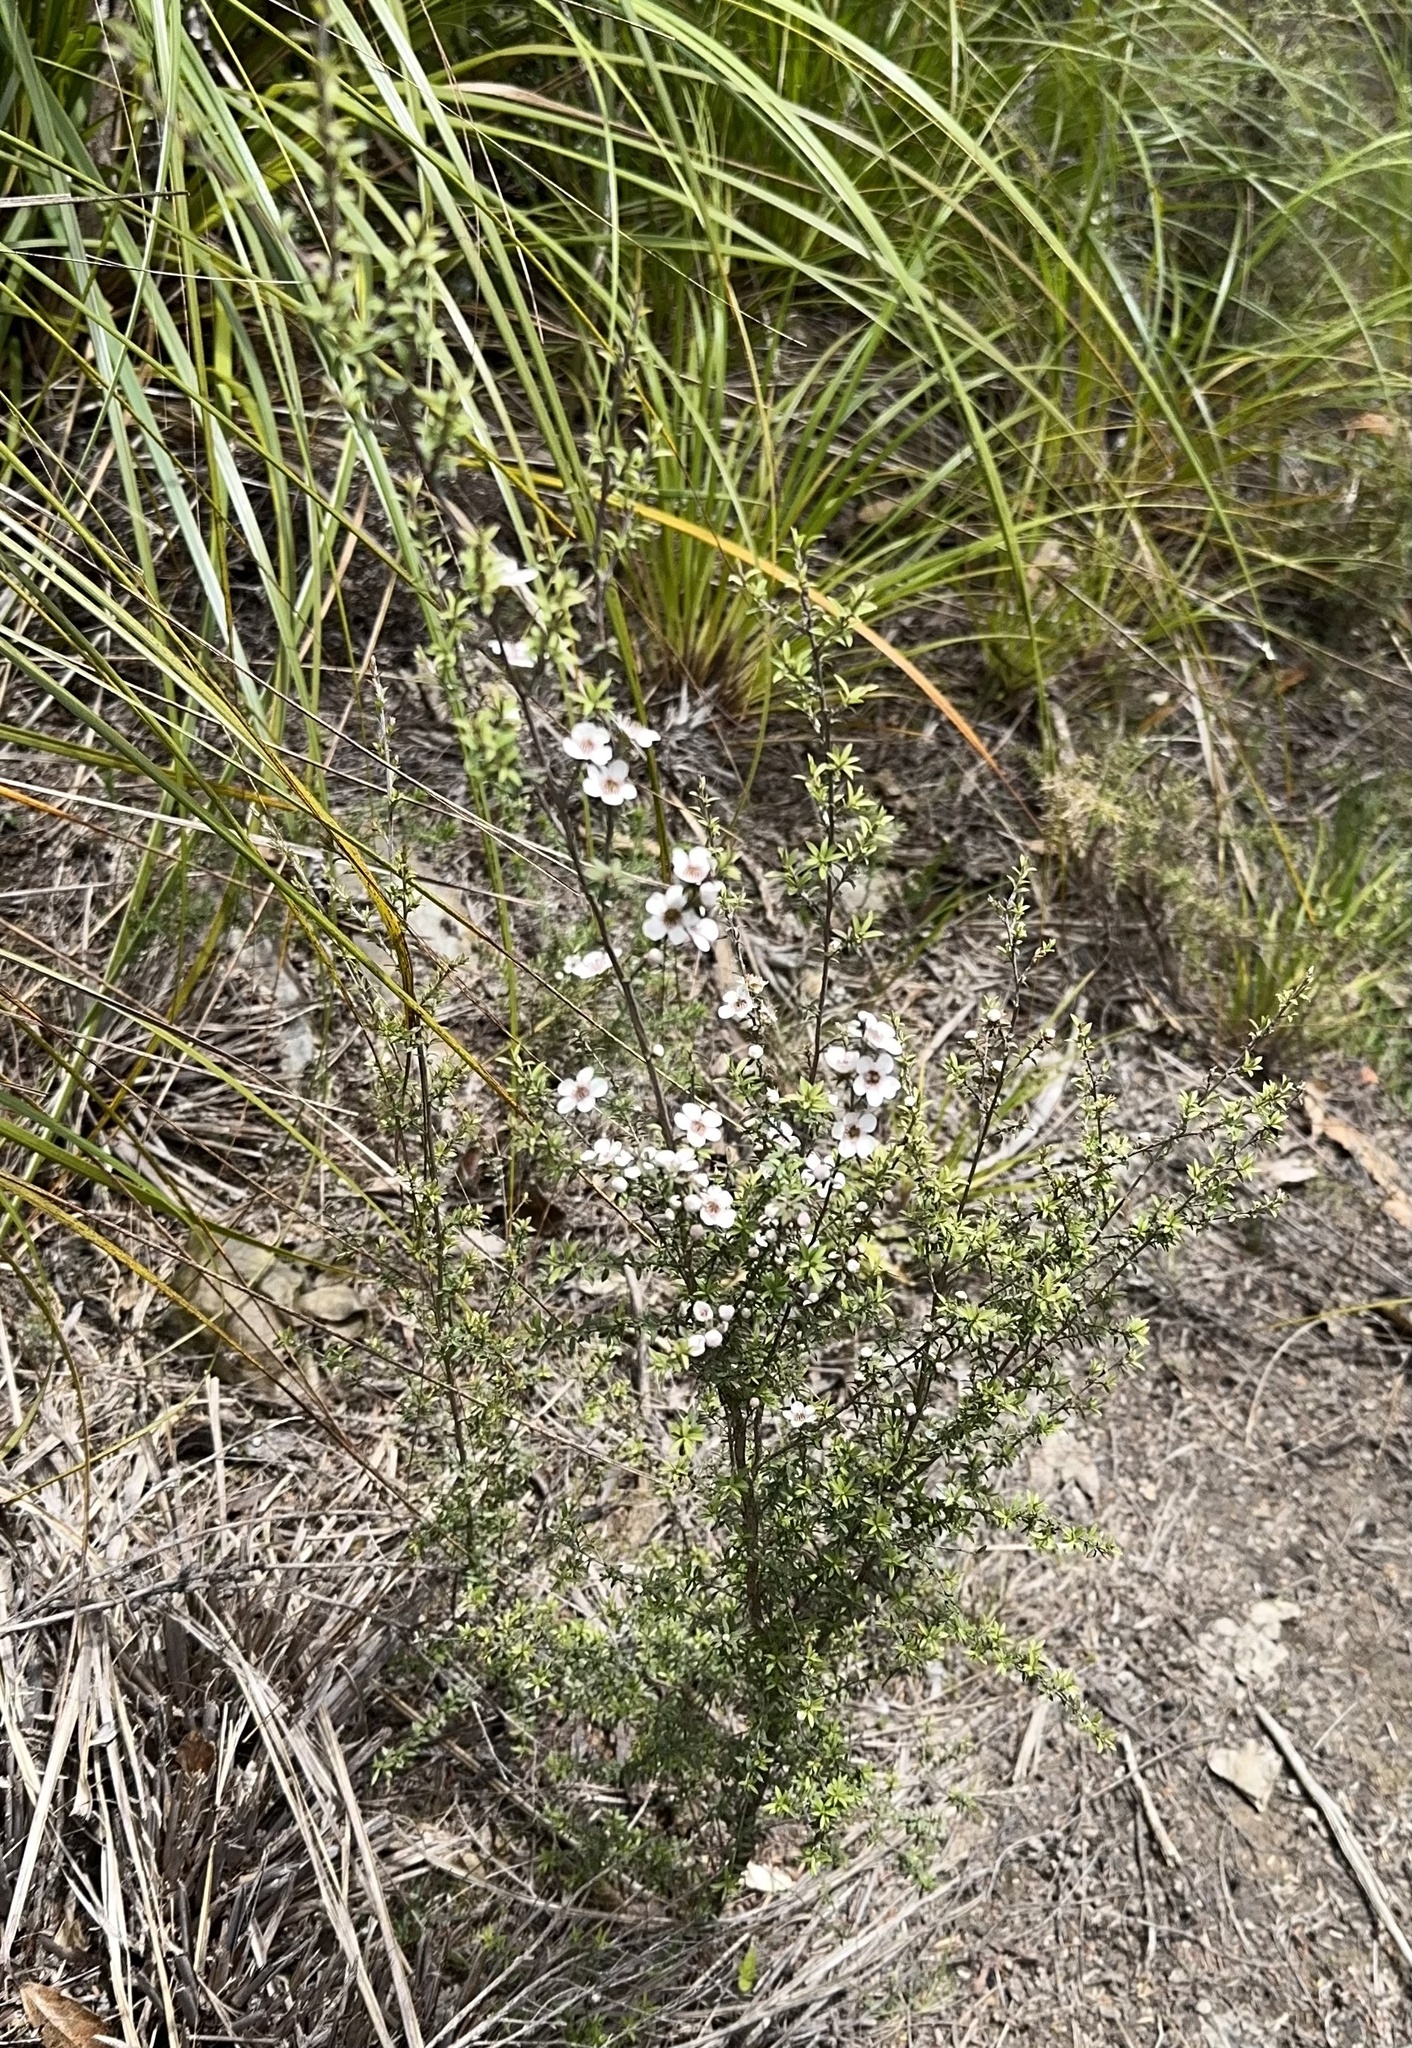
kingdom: Plantae
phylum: Tracheophyta
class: Magnoliopsida
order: Myrtales
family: Myrtaceae
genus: Leptospermum
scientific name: Leptospermum scoparium
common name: Broom tea-tree
